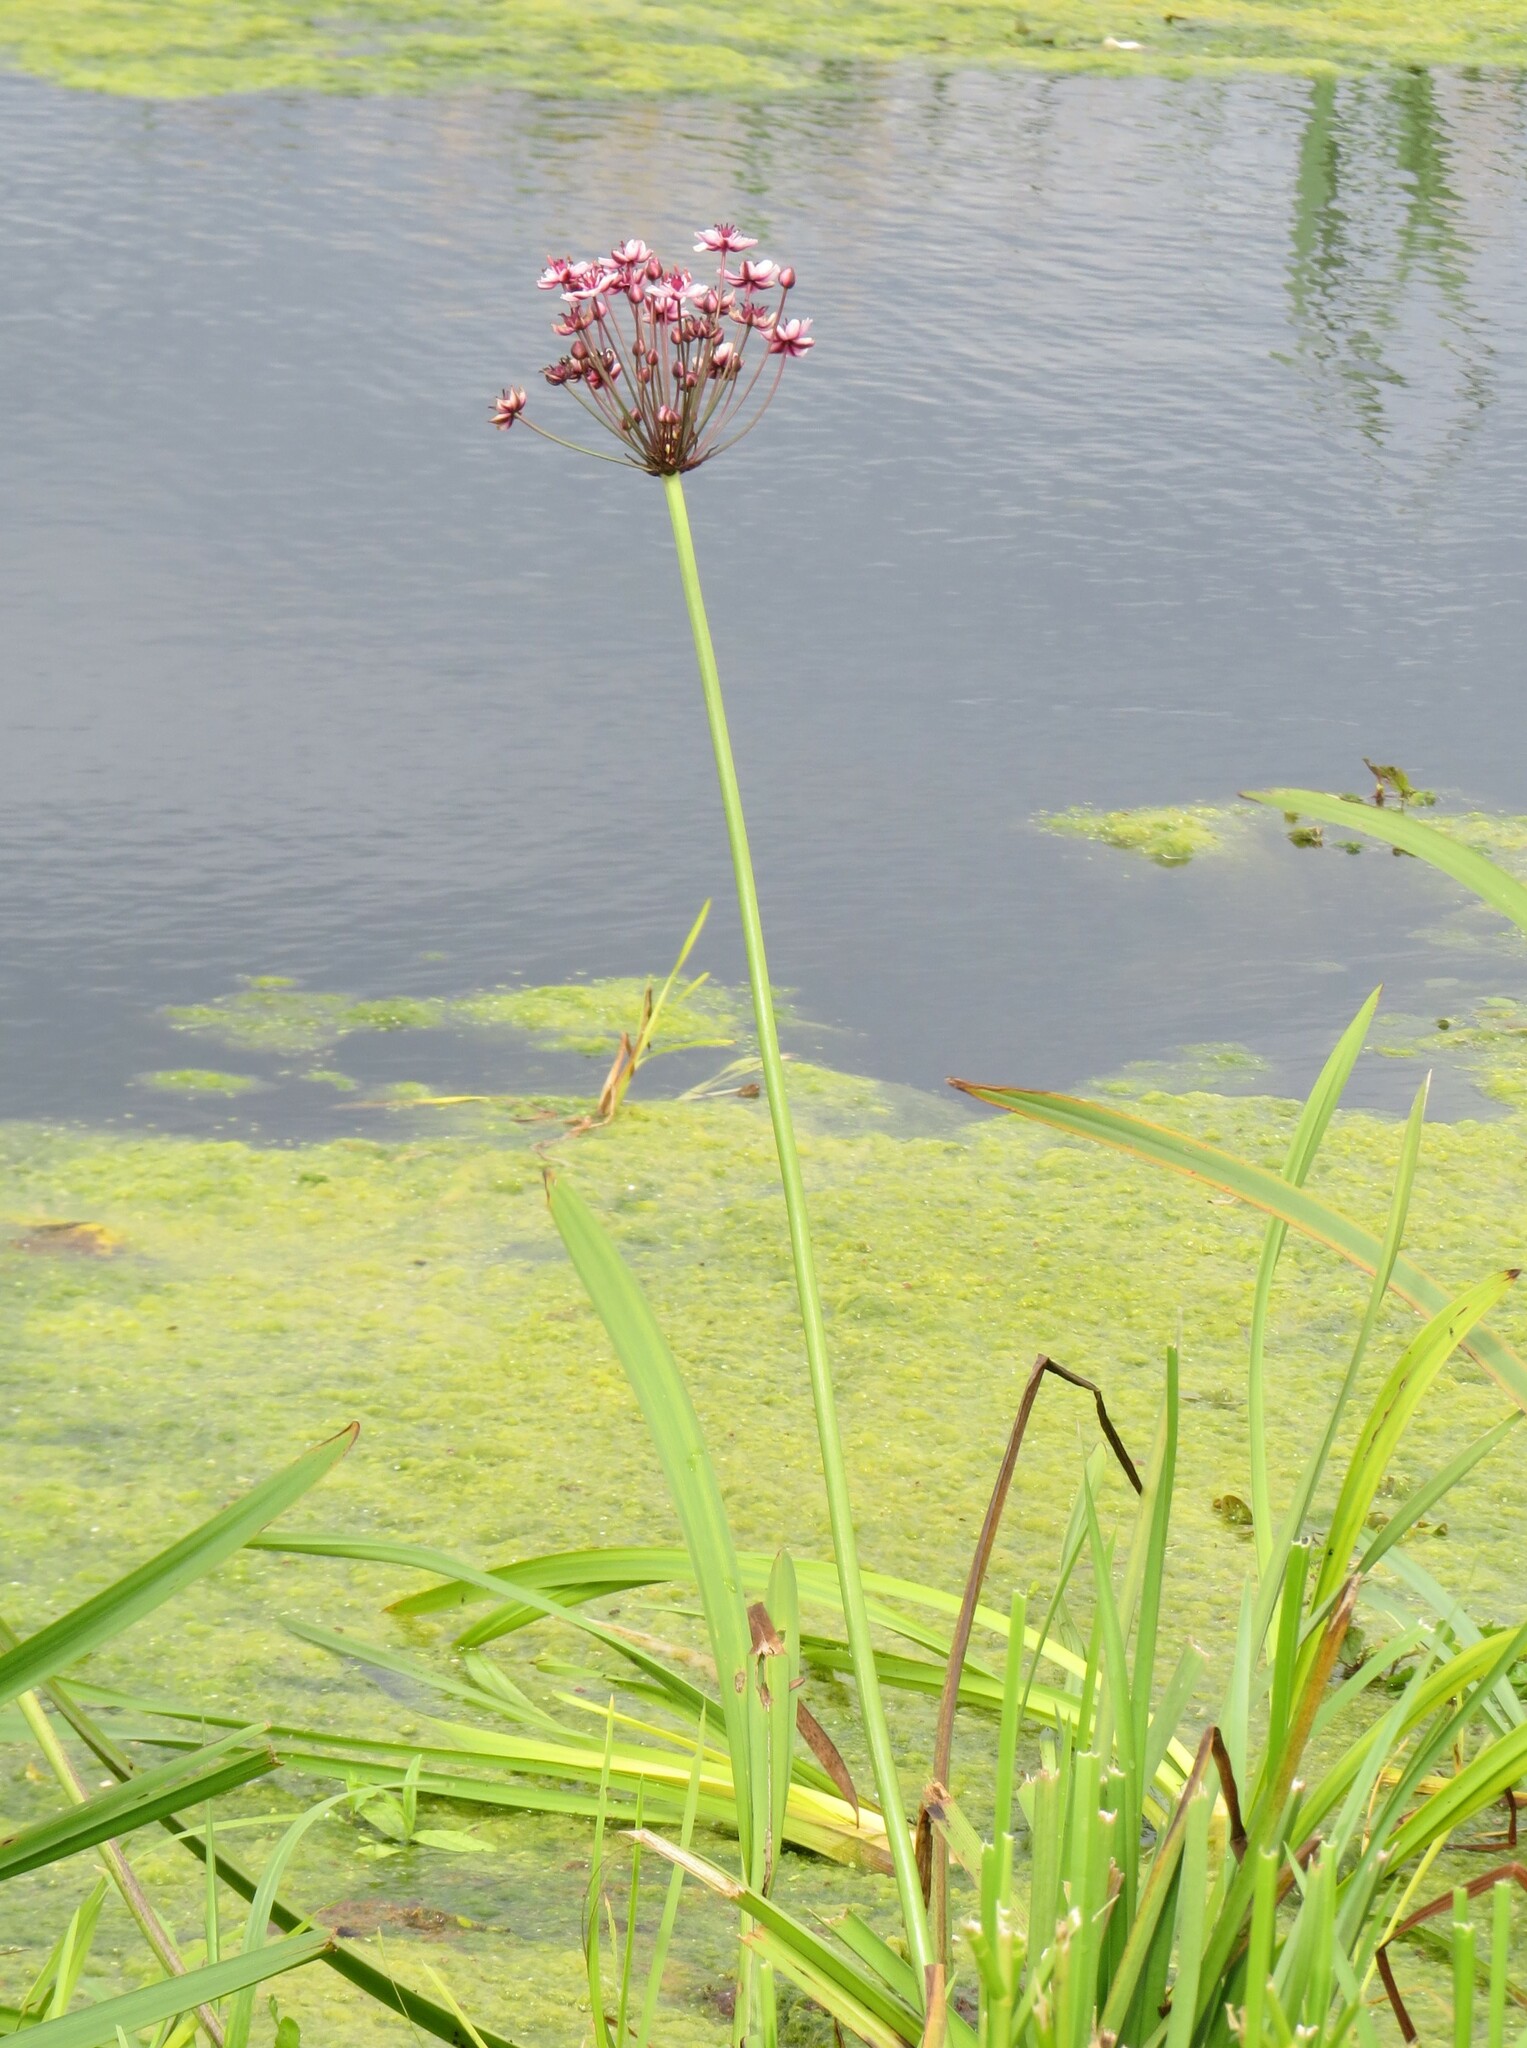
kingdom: Plantae
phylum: Tracheophyta
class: Liliopsida
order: Alismatales
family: Butomaceae
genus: Butomus
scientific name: Butomus umbellatus
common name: Flowering-rush
